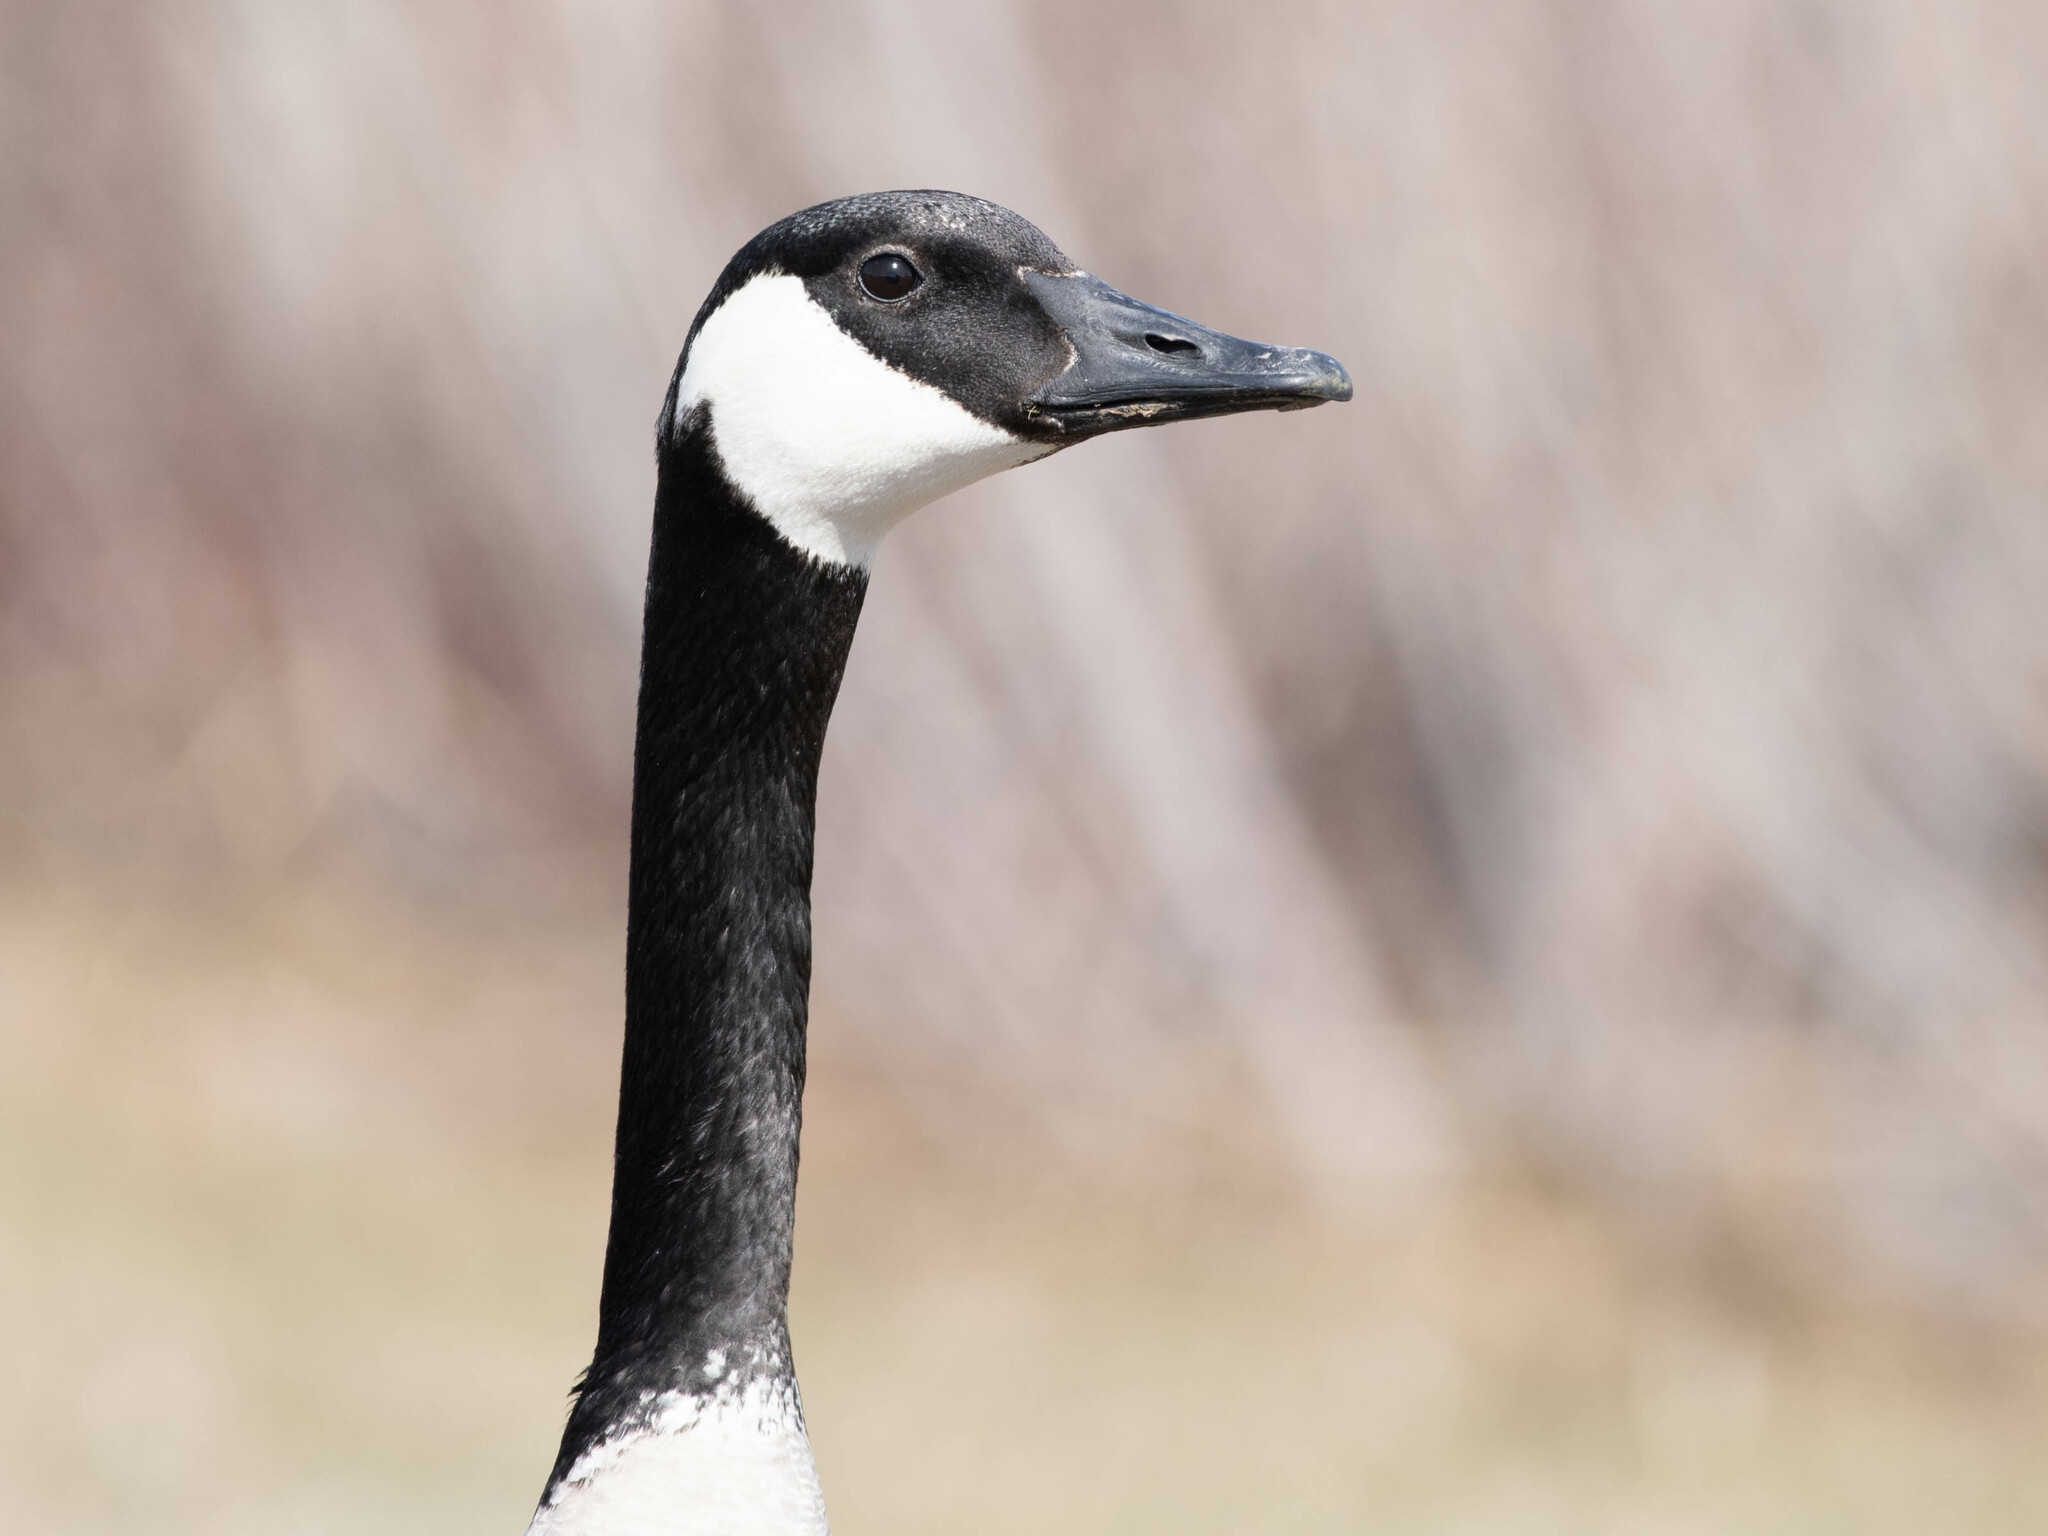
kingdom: Animalia
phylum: Chordata
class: Aves
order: Anseriformes
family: Anatidae
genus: Branta
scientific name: Branta canadensis
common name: Canada goose
